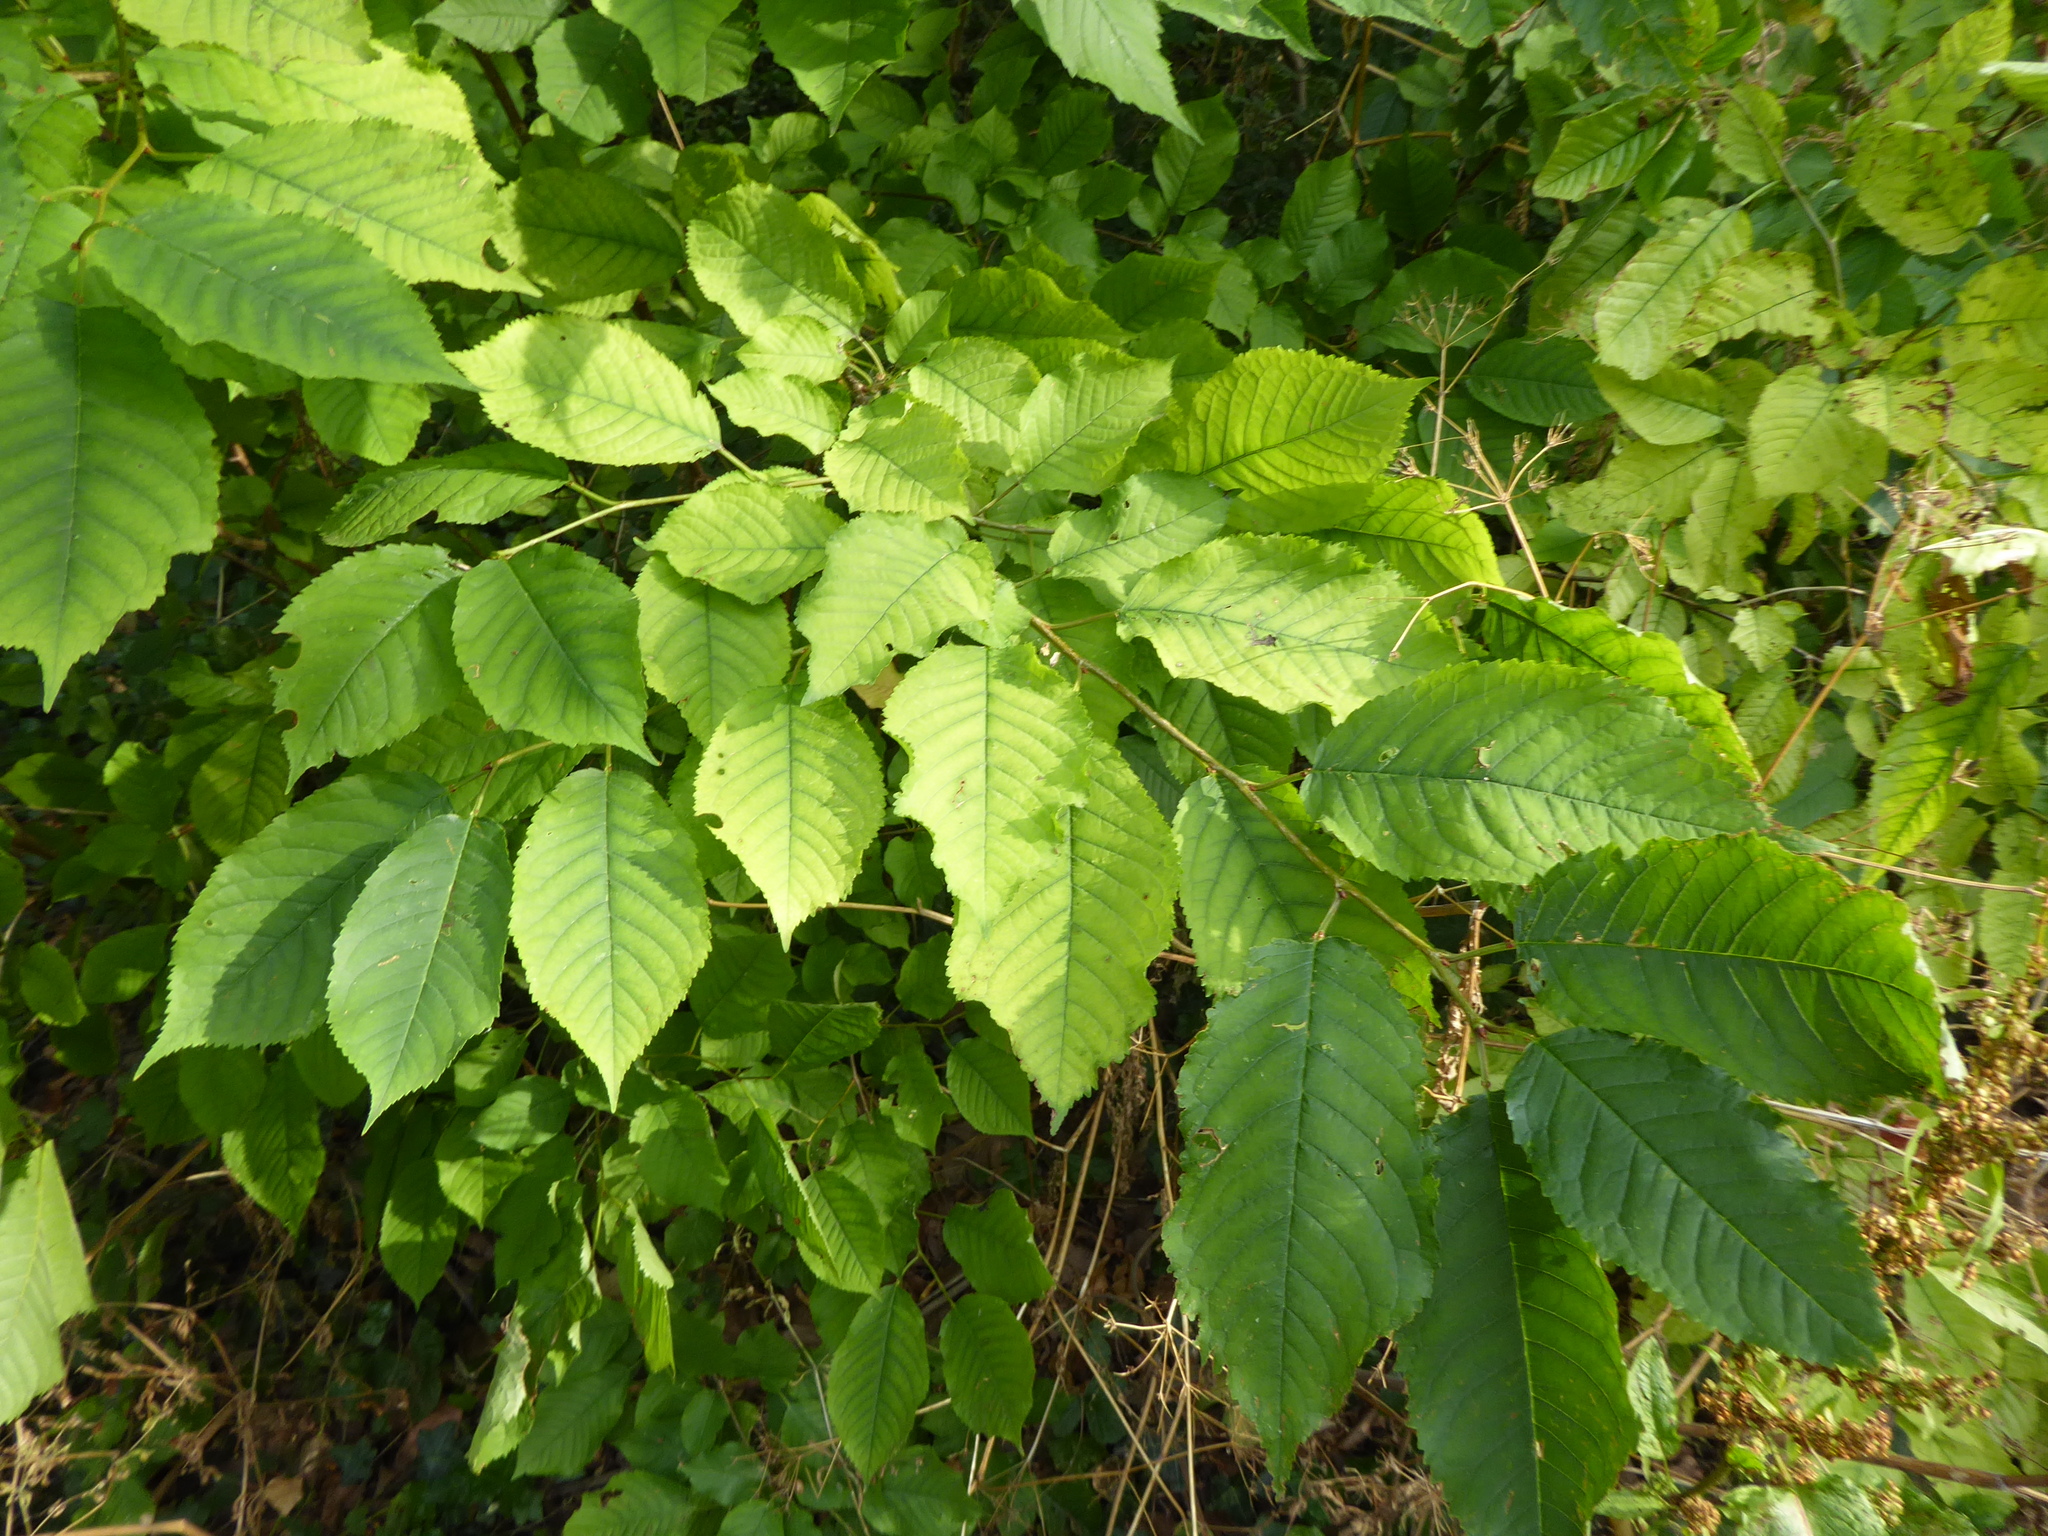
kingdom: Plantae
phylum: Tracheophyta
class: Magnoliopsida
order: Rosales
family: Rosaceae
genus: Prunus
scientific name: Prunus avium
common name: Sweet cherry
